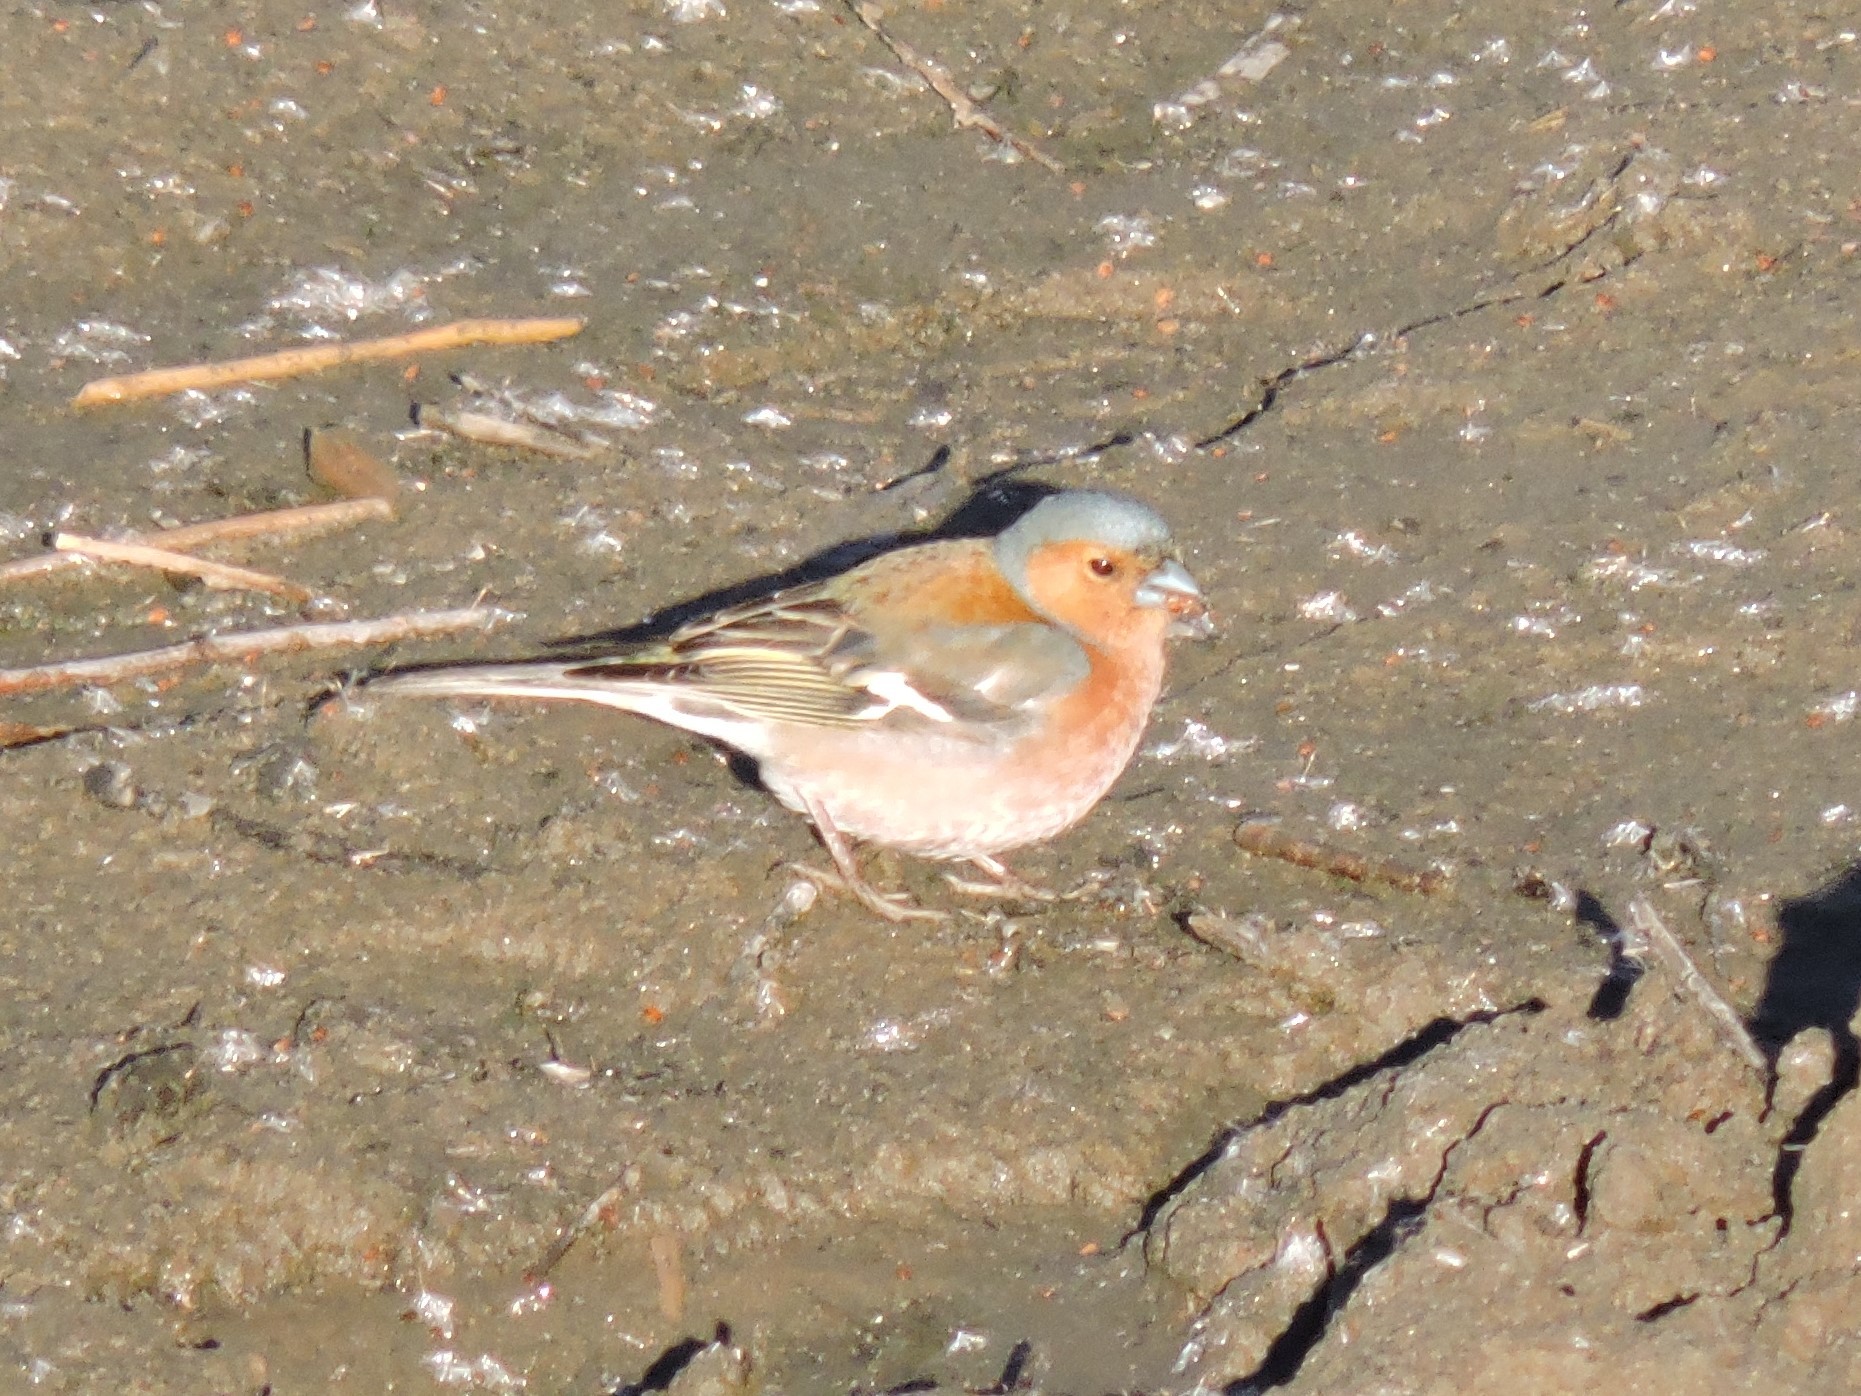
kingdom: Animalia
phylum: Chordata
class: Aves
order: Passeriformes
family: Fringillidae
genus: Fringilla
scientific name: Fringilla coelebs
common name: Common chaffinch
